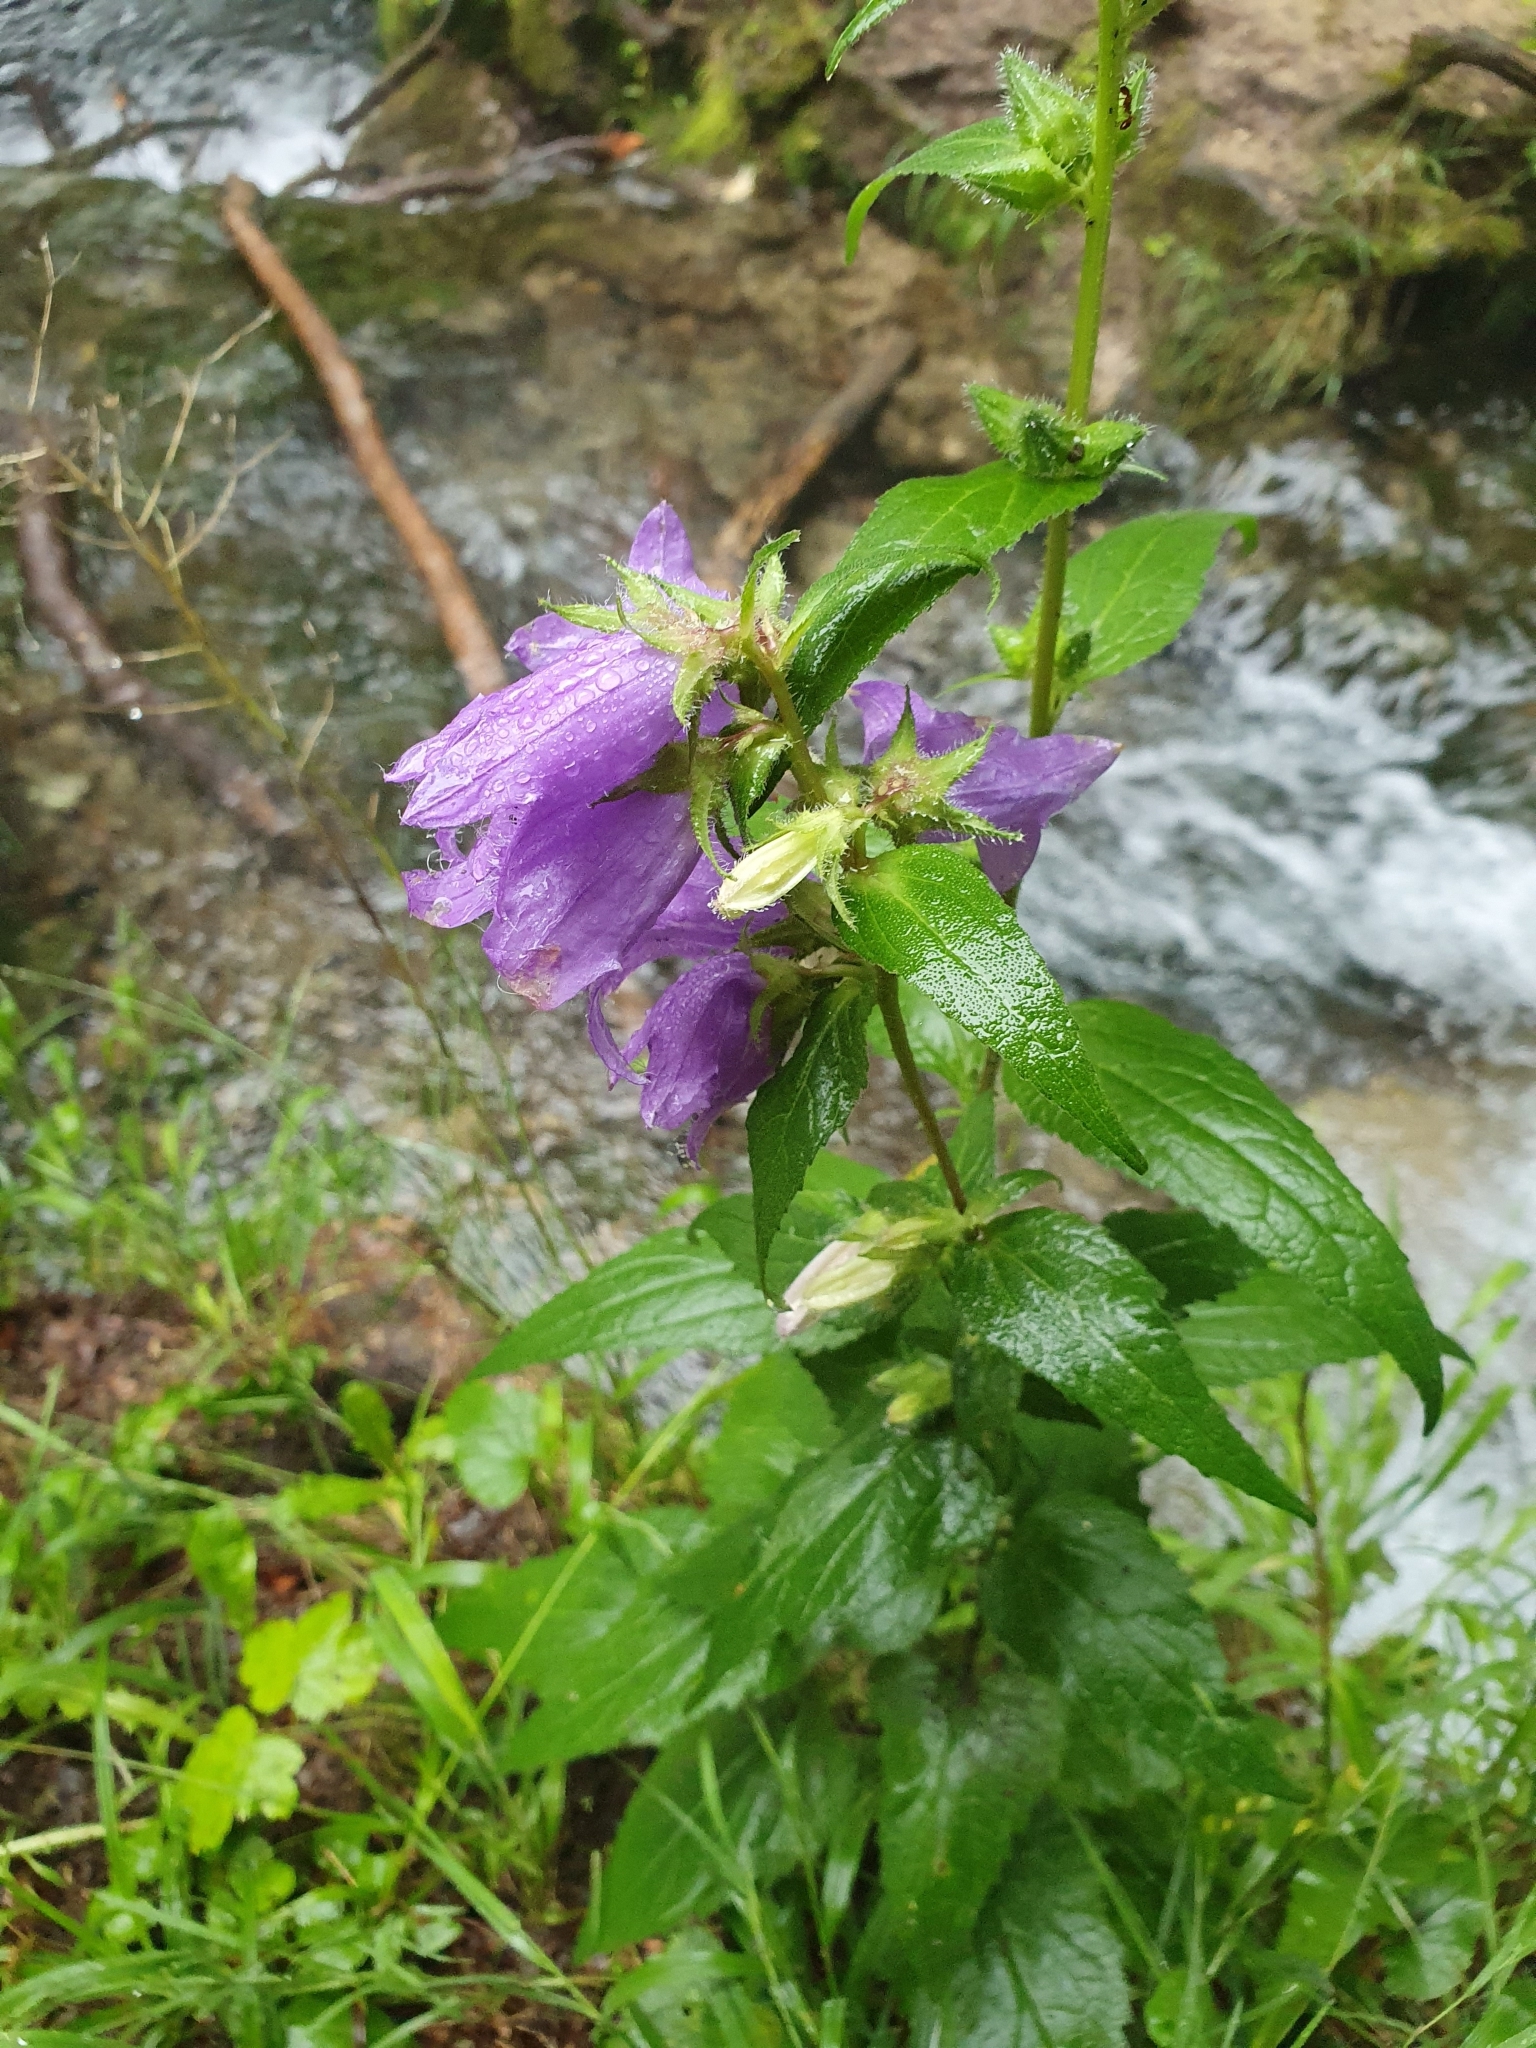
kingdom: Plantae
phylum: Tracheophyta
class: Magnoliopsida
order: Asterales
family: Campanulaceae
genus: Campanula
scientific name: Campanula trachelium
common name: Nettle-leaved bellflower
